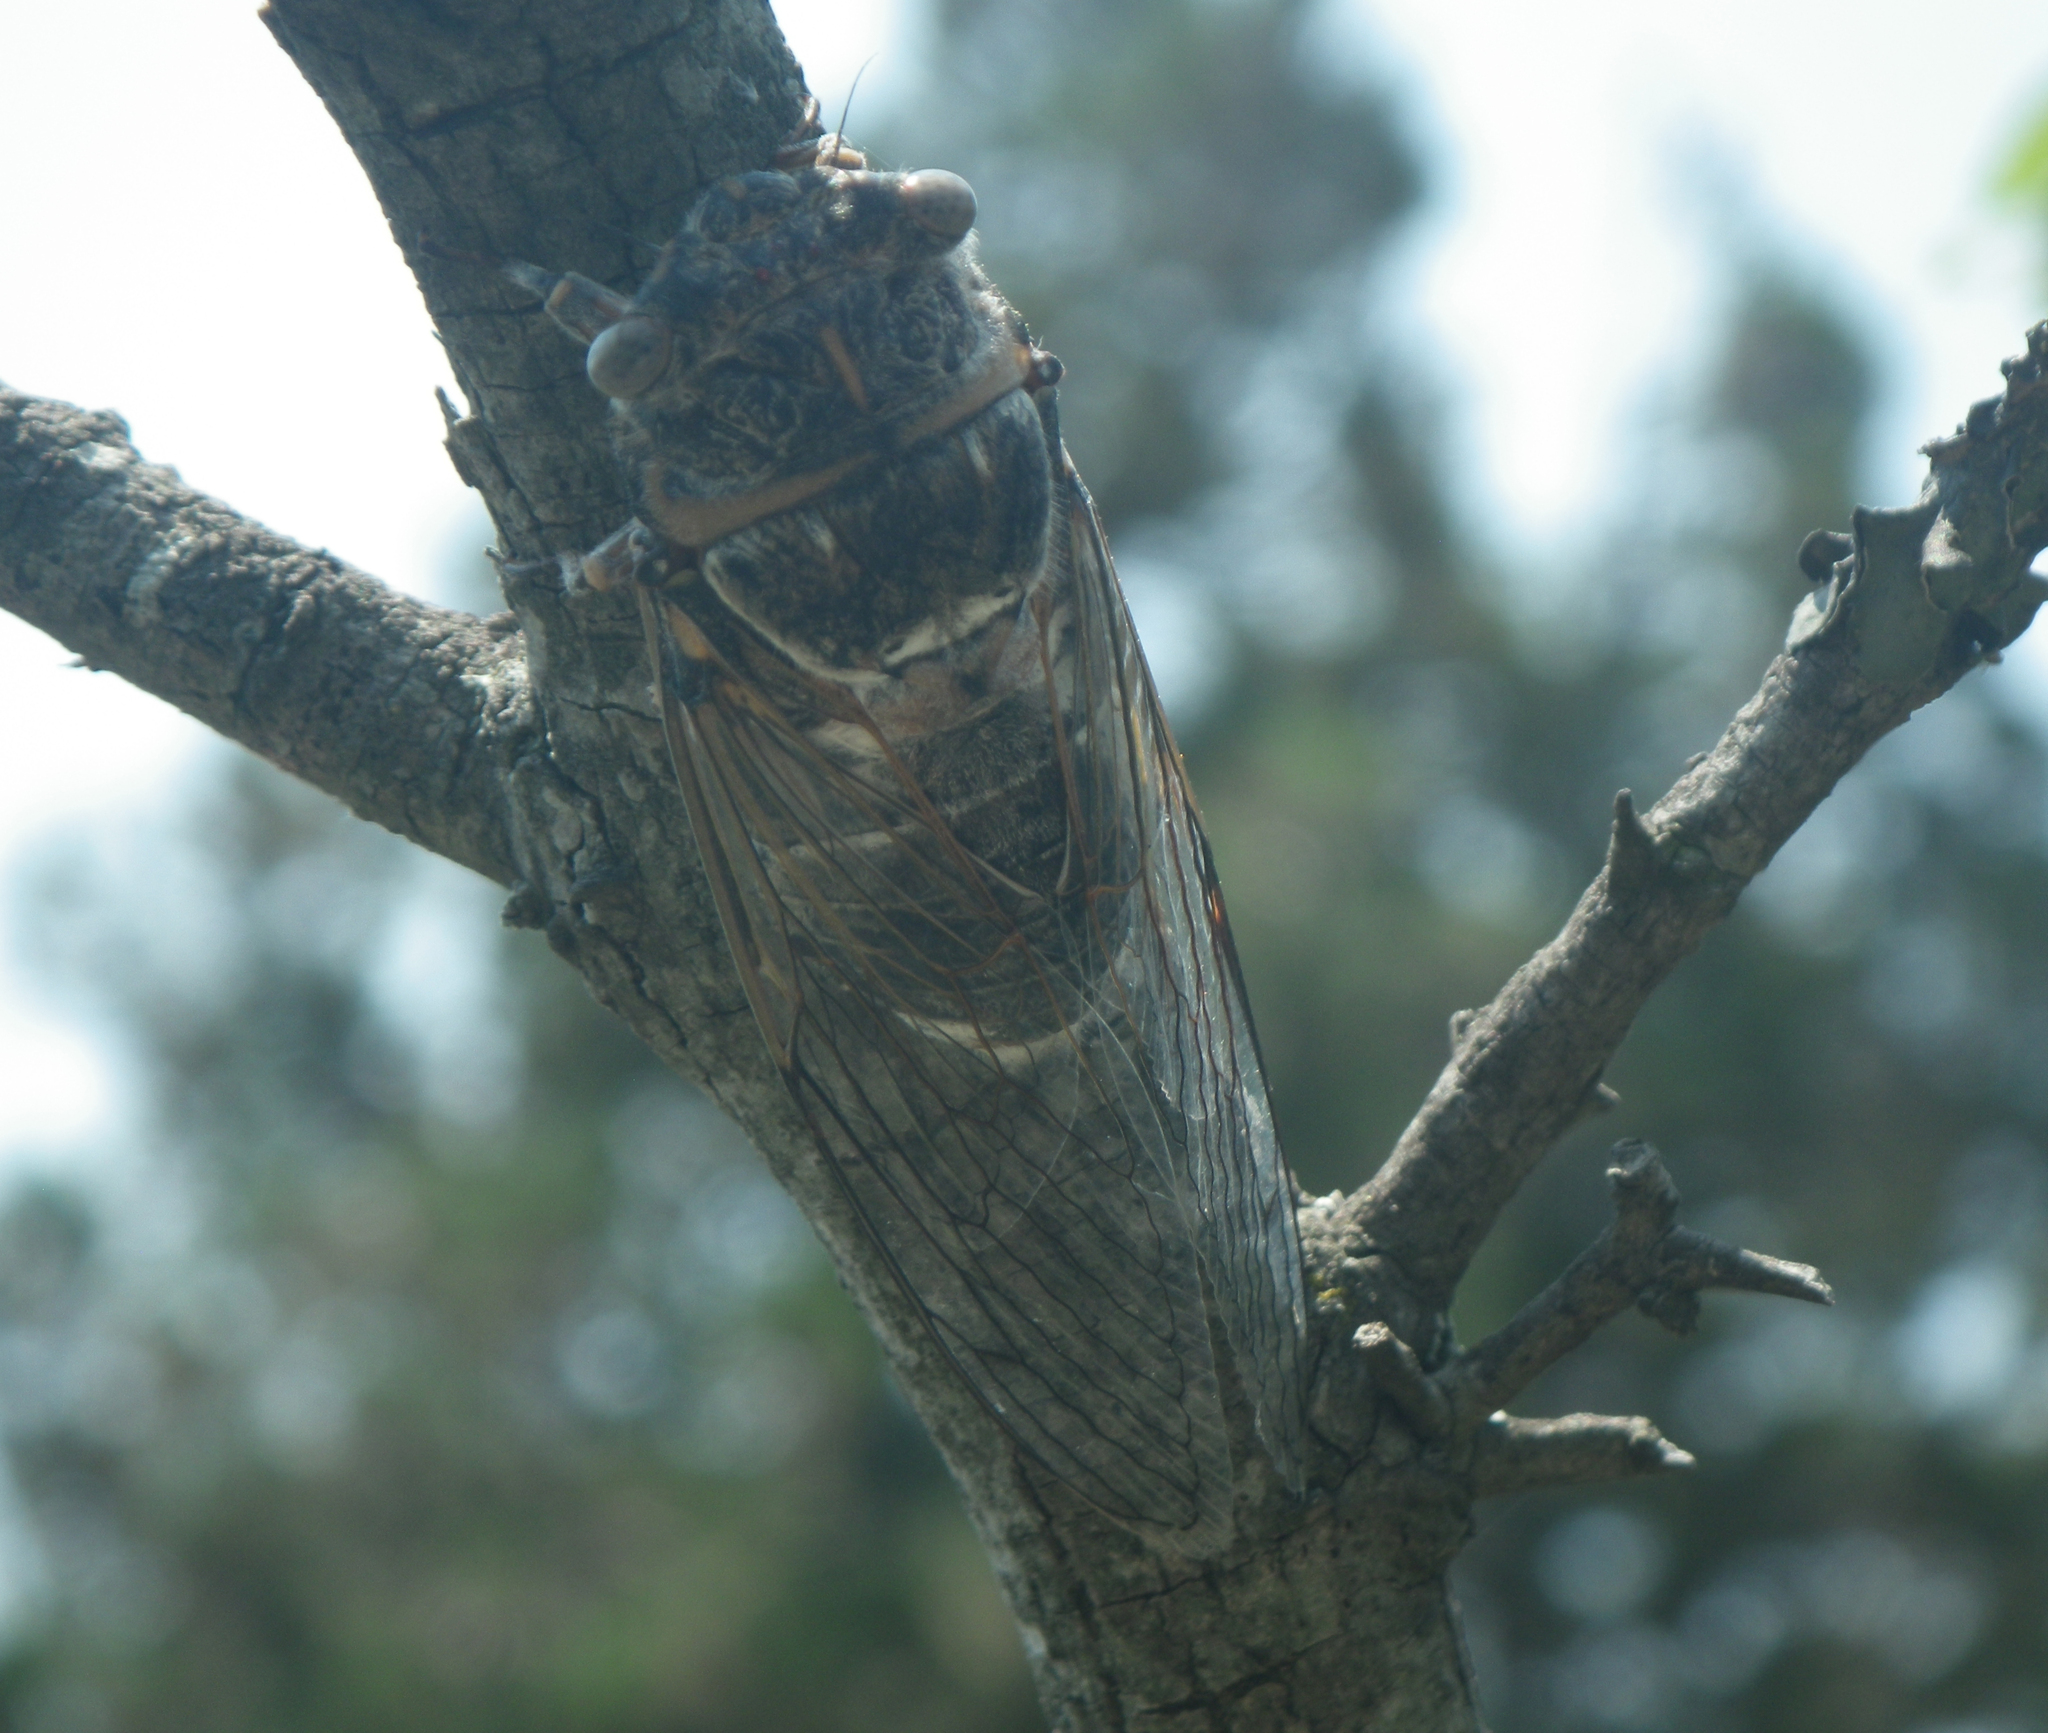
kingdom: Animalia
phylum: Arthropoda
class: Insecta
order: Hemiptera
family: Cicadidae
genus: Lyristes
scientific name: Lyristes plebejus
